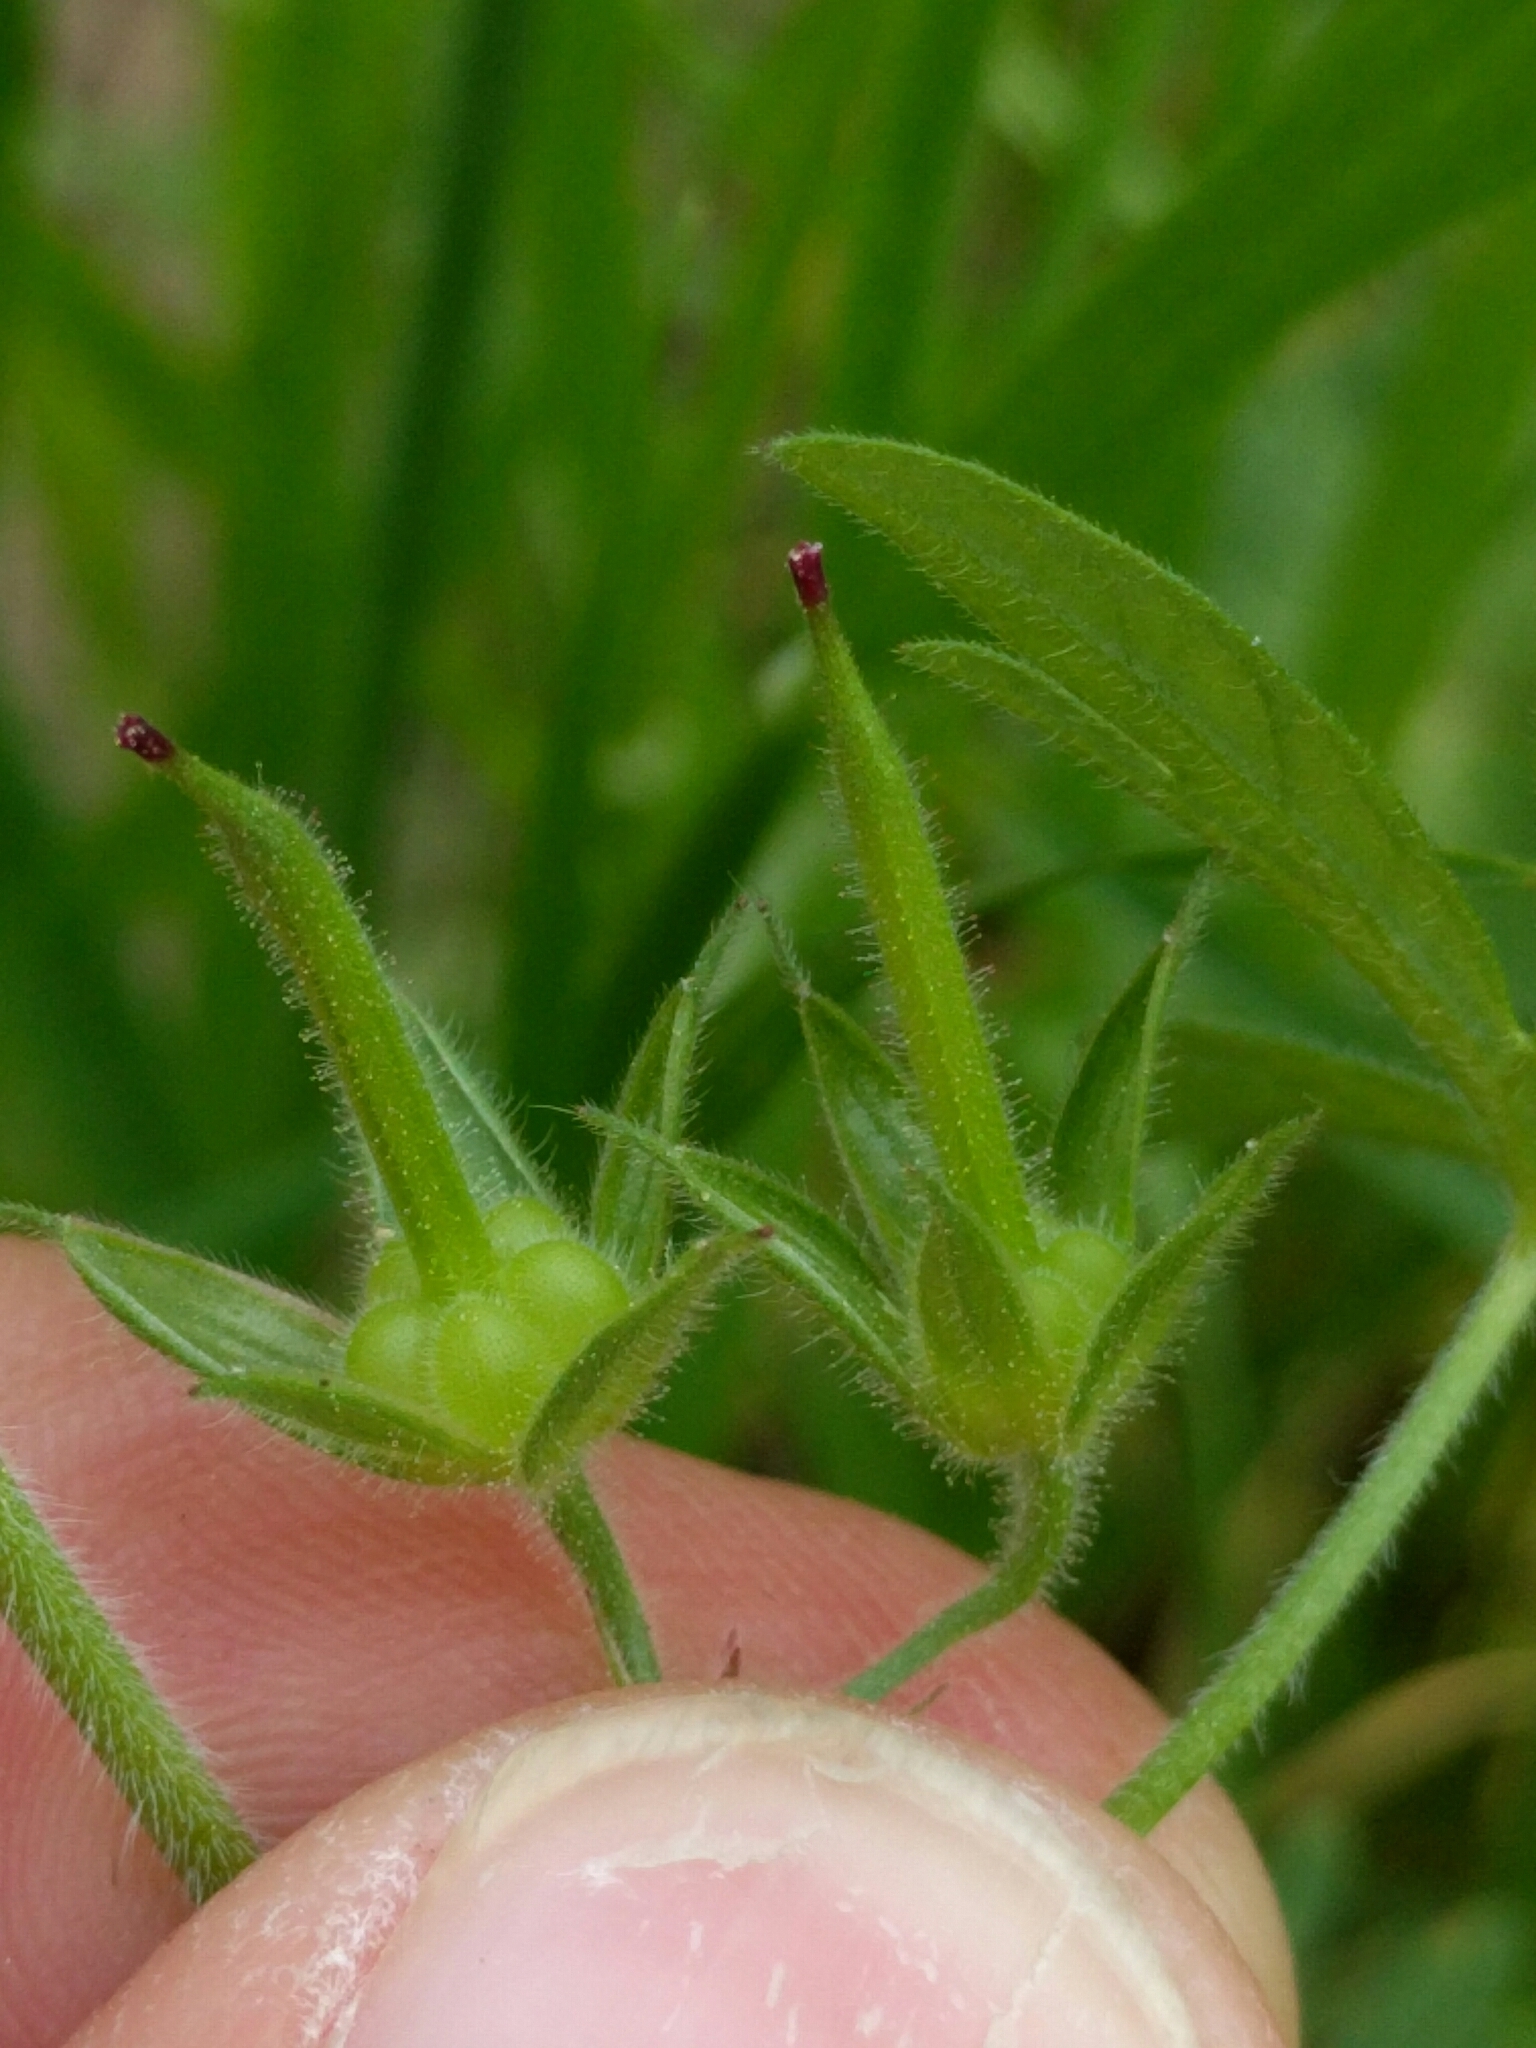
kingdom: Plantae
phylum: Tracheophyta
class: Magnoliopsida
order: Geraniales
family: Geraniaceae
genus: Geranium
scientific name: Geranium dissectum
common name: Cut-leaved crane's-bill
